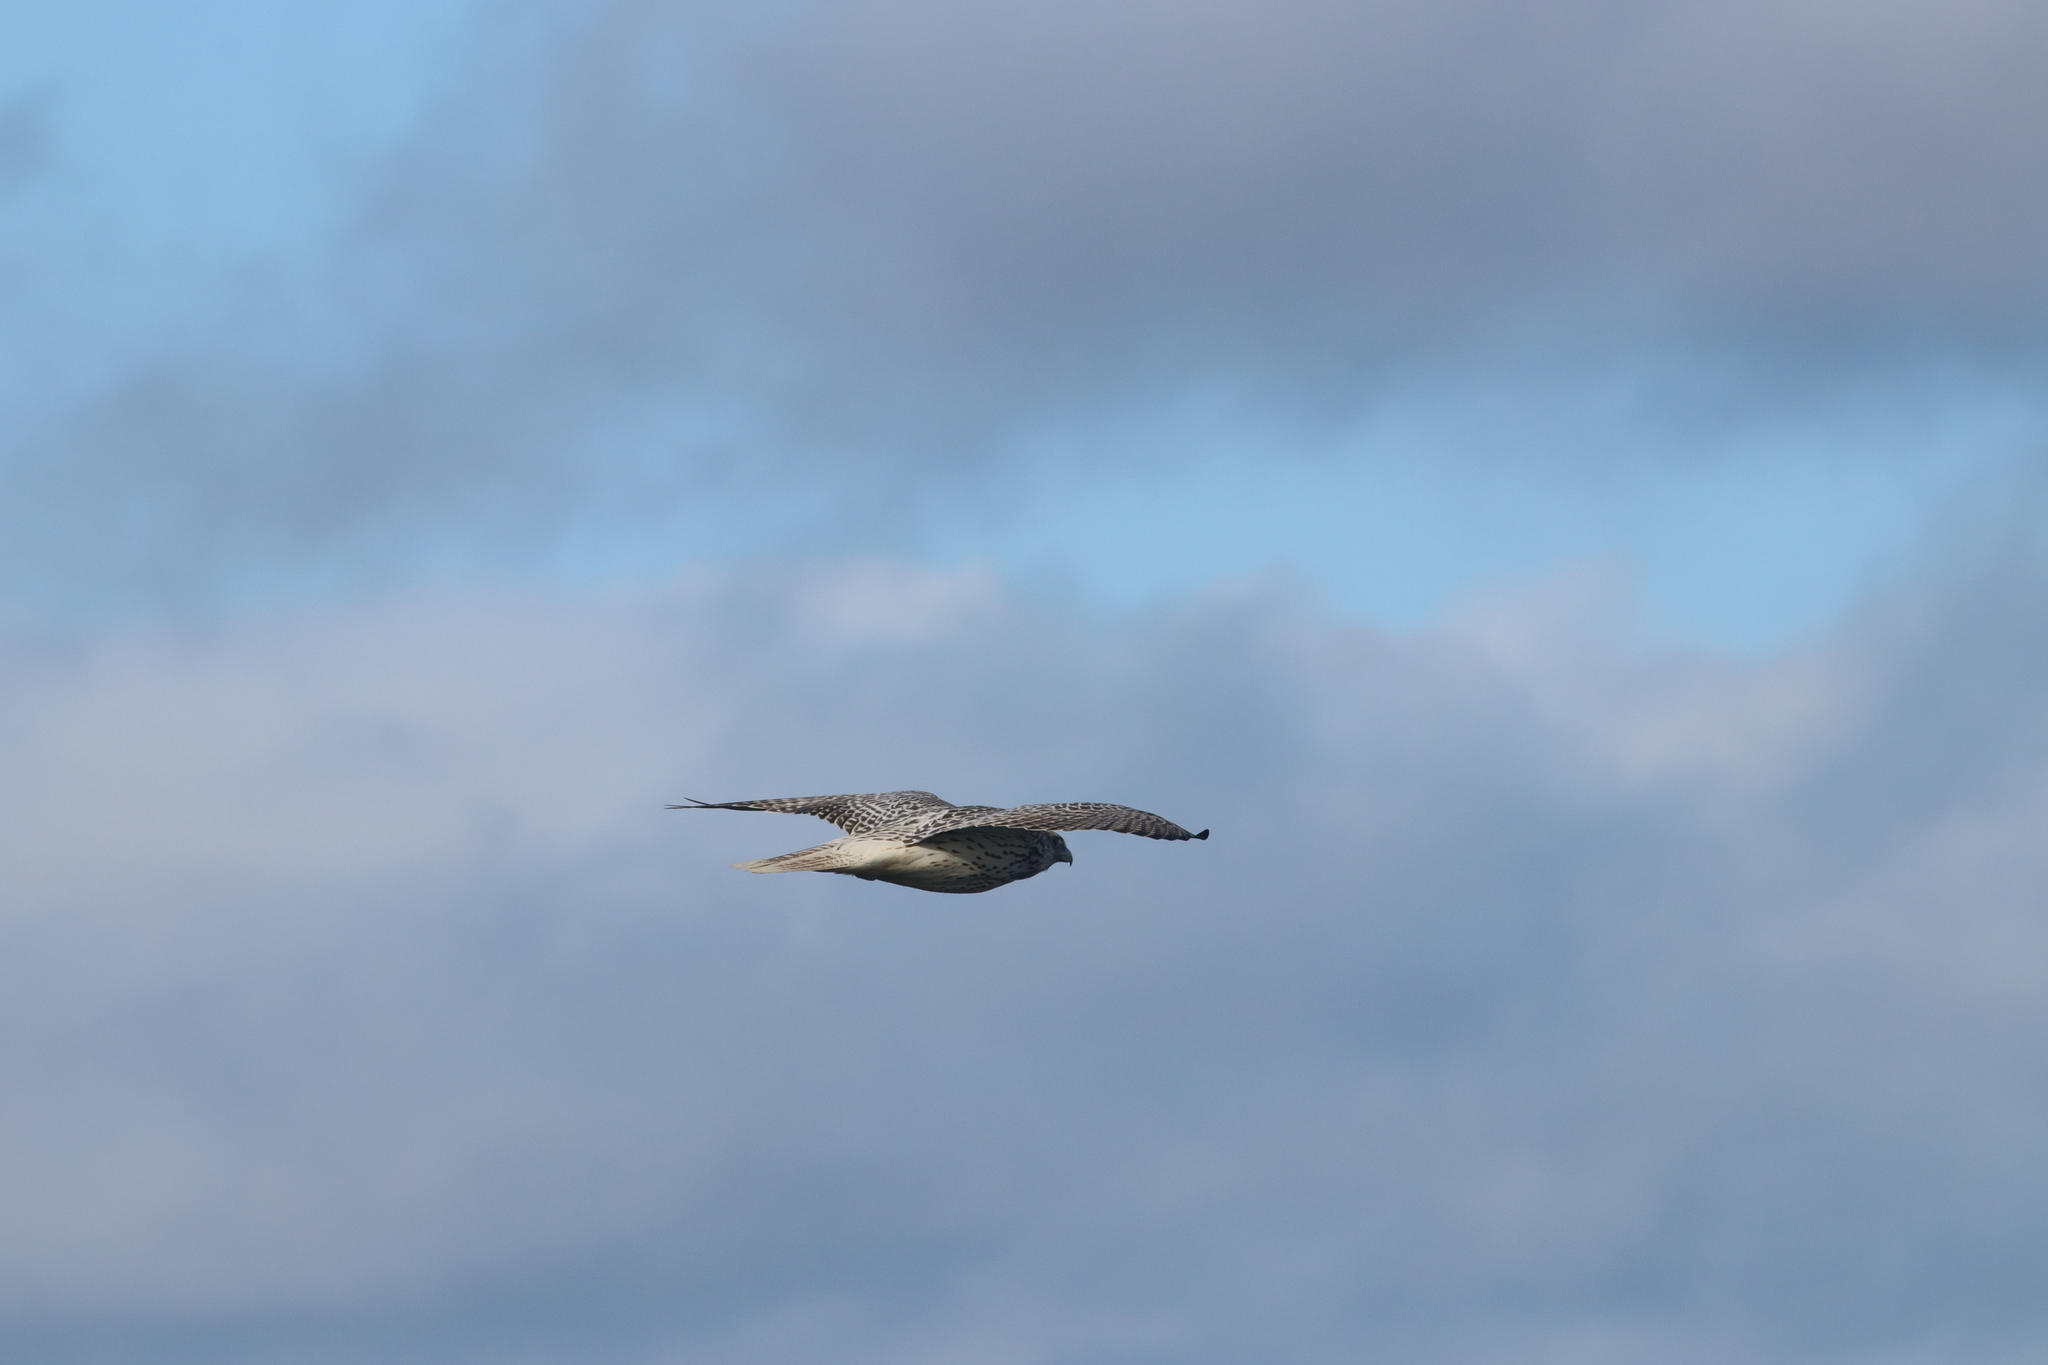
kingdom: Animalia
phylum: Chordata
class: Aves
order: Falconiformes
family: Falconidae
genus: Falco
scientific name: Falco rusticolus
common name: Gyrfalcon
